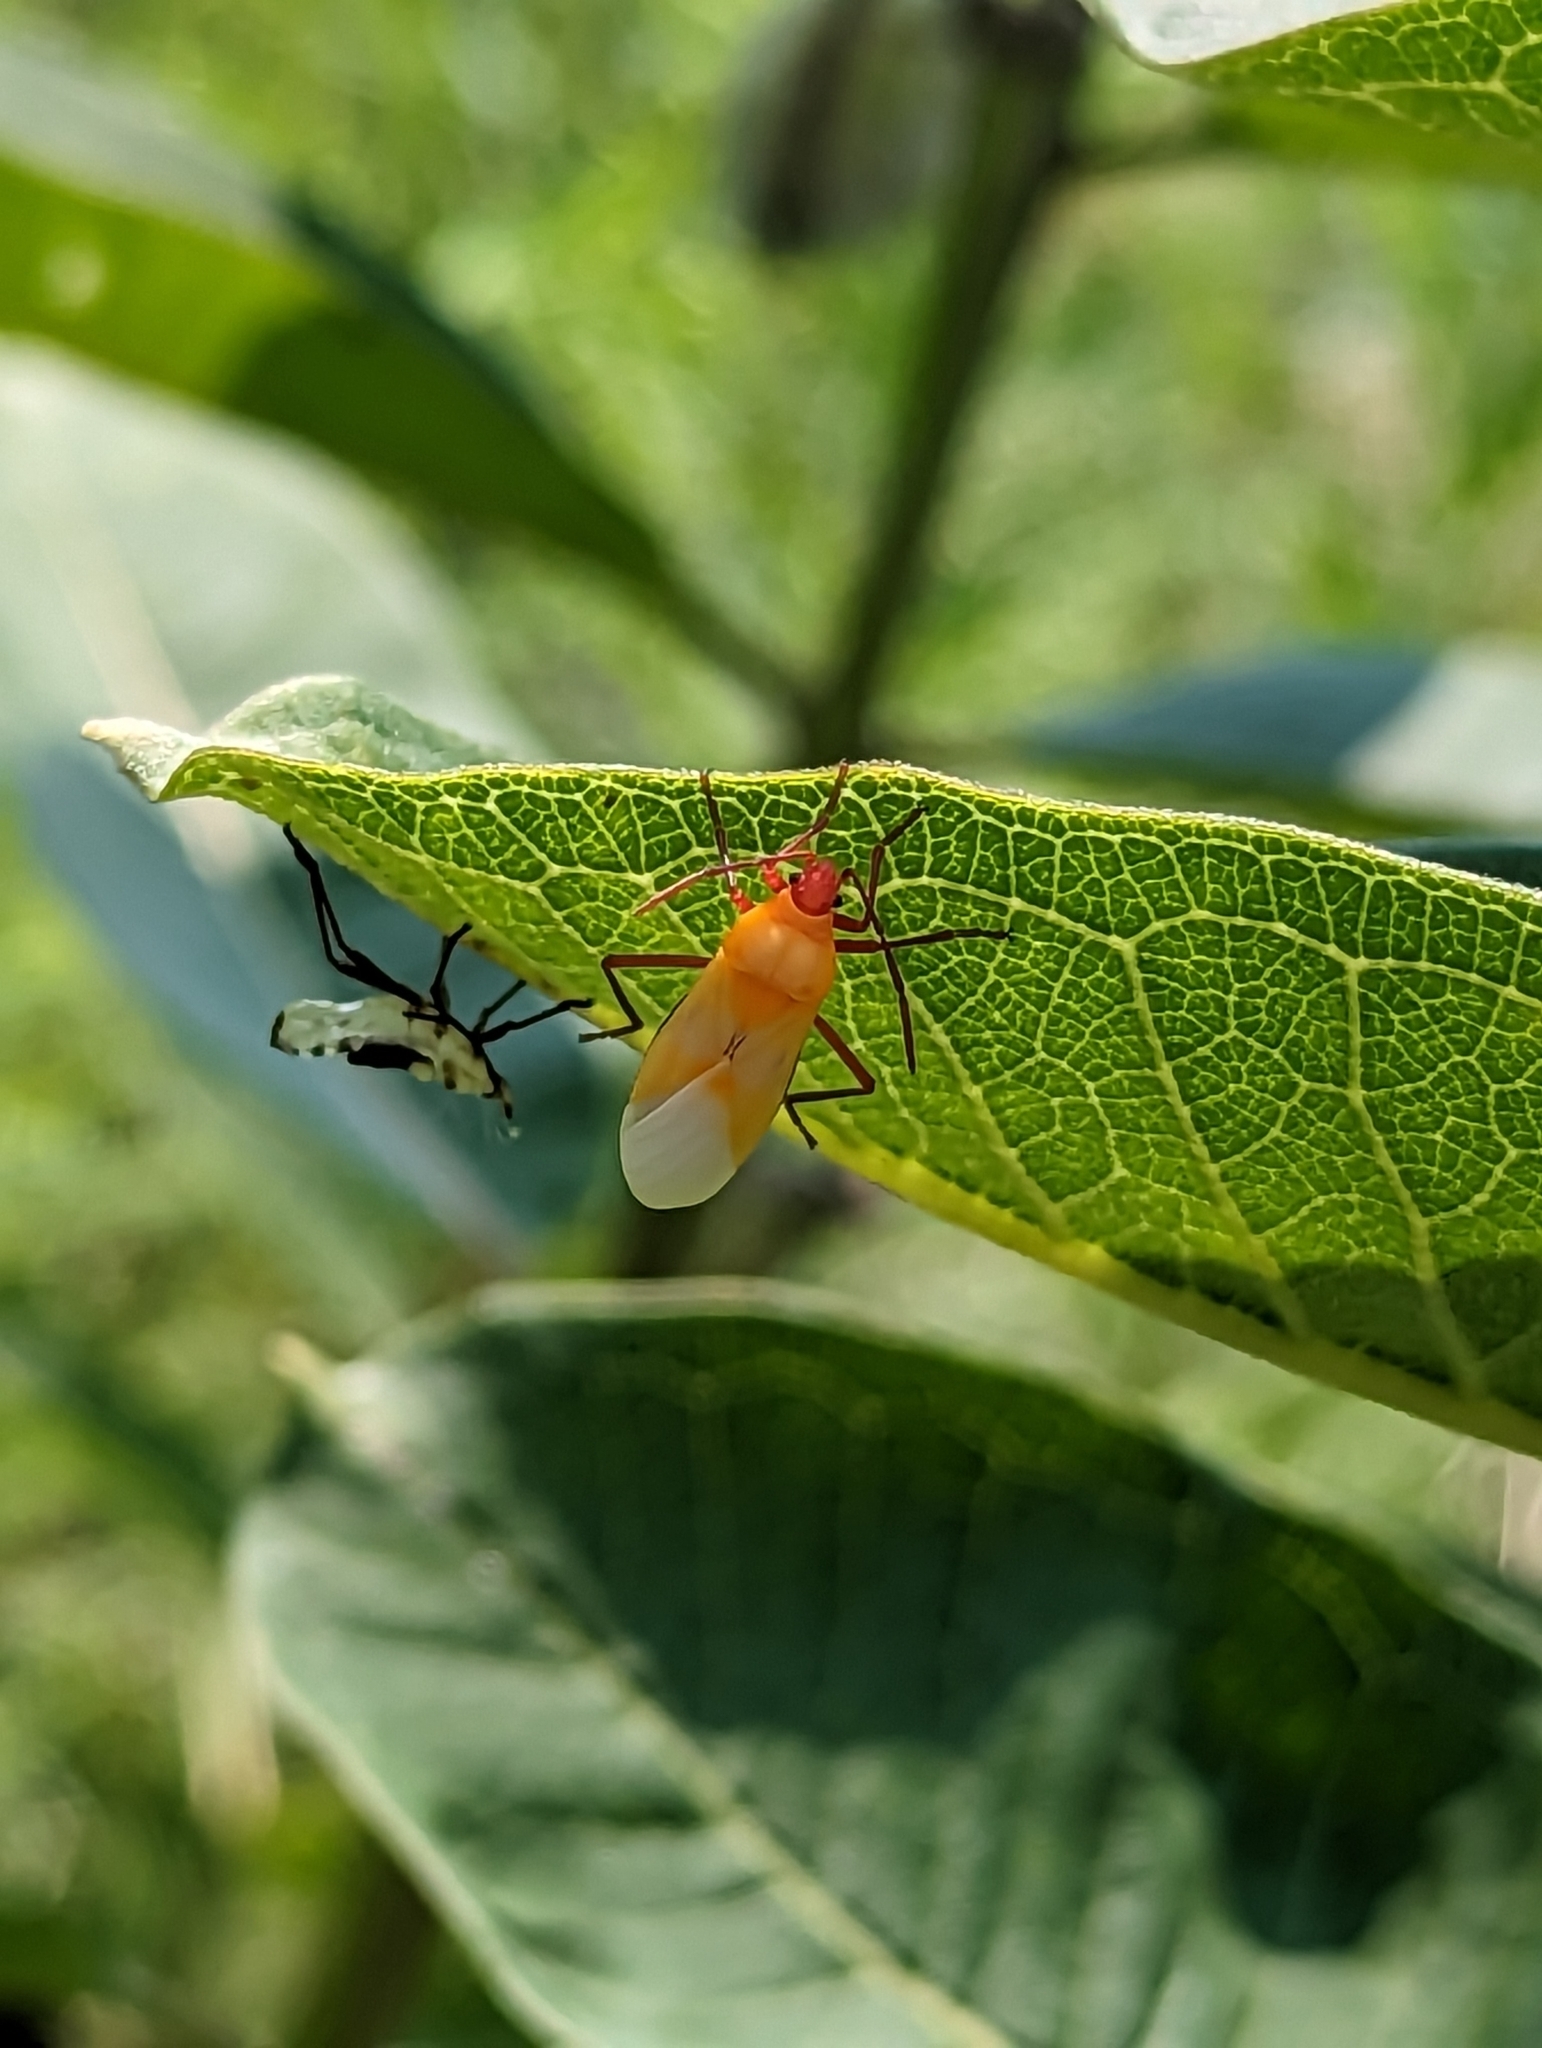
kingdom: Animalia
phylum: Arthropoda
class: Insecta
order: Hemiptera
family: Lygaeidae
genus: Oncopeltus
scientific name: Oncopeltus fasciatus
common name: Large milkweed bug
